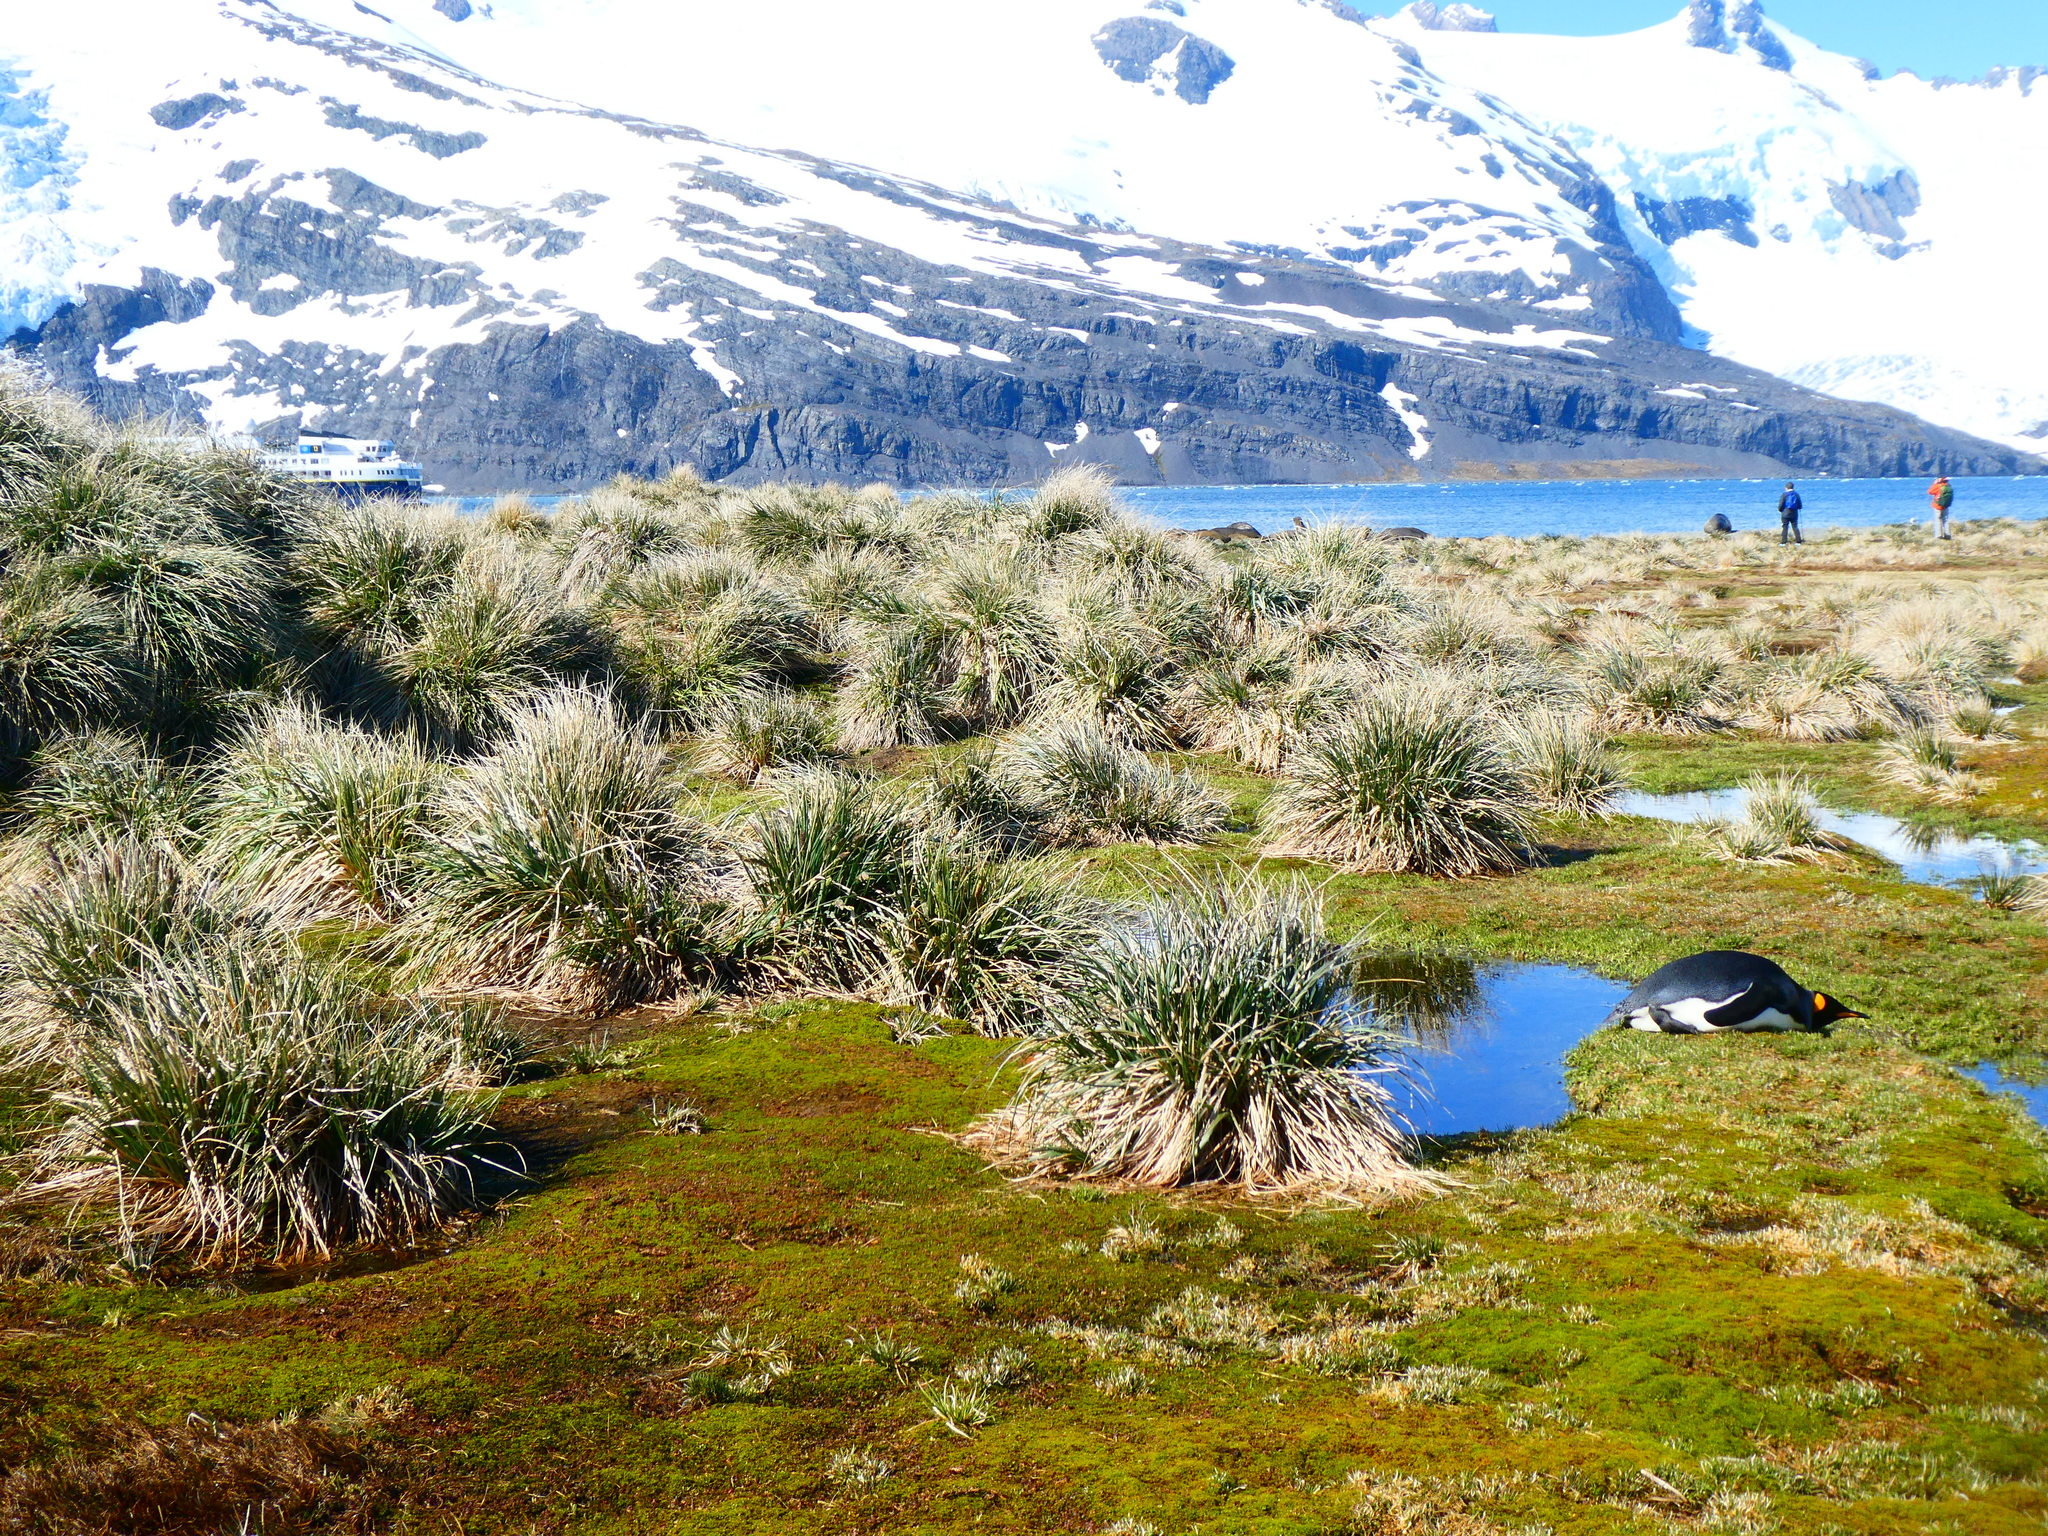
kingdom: Plantae
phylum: Tracheophyta
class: Liliopsida
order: Poales
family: Poaceae
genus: Poa
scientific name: Poa flabellata
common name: Tussac-grass
